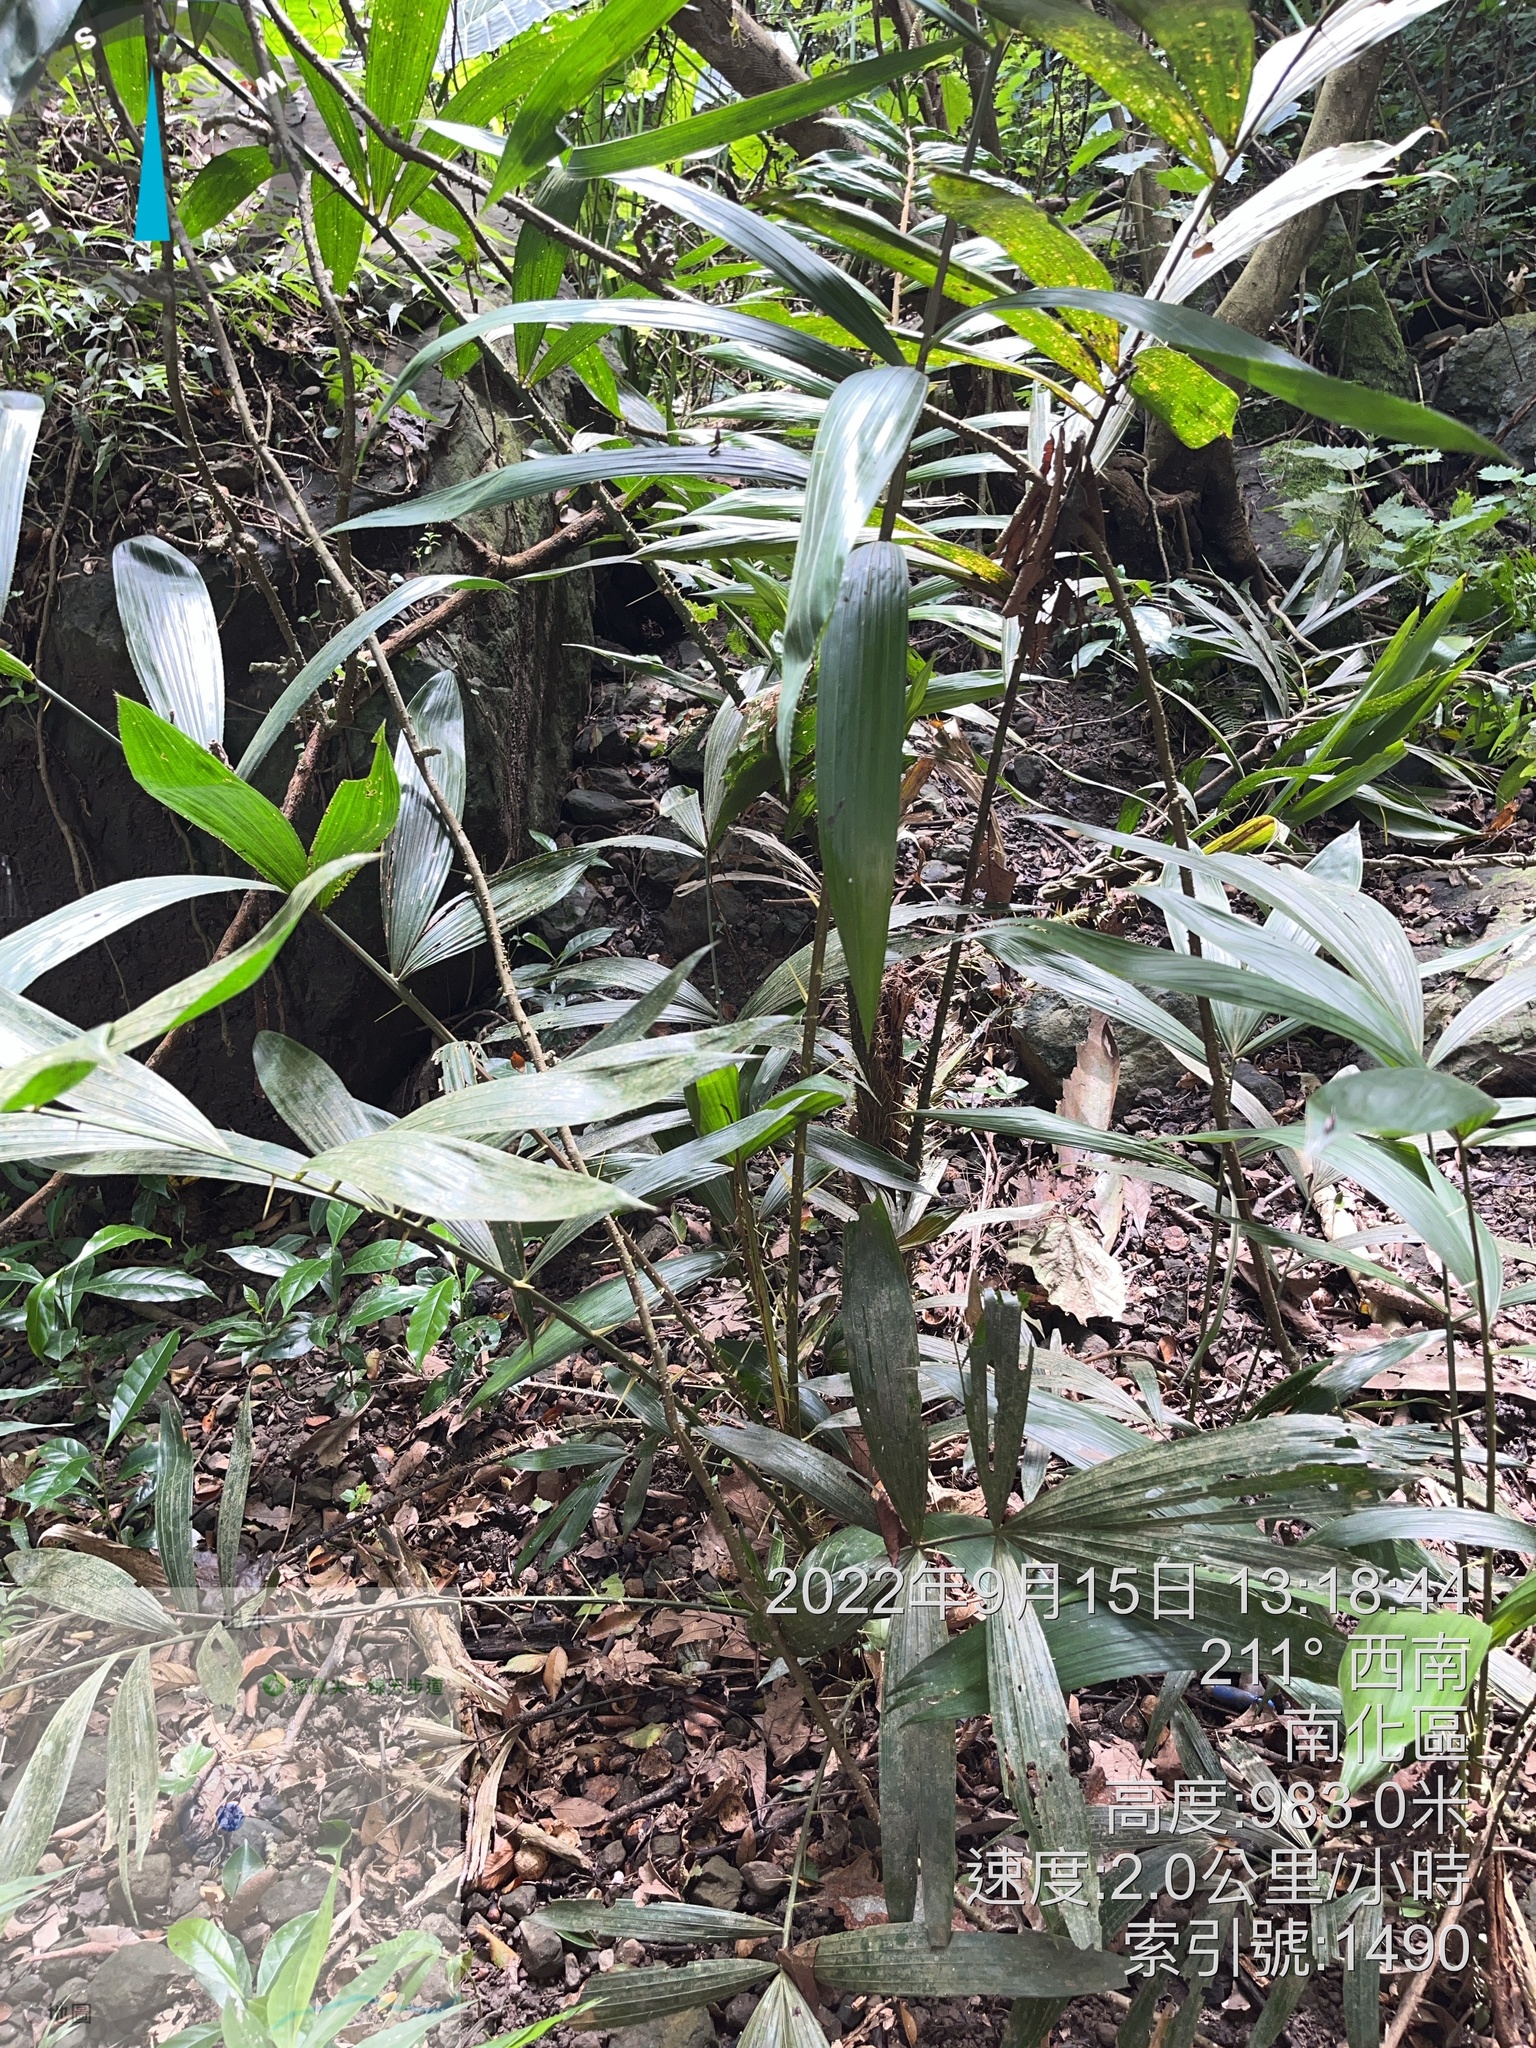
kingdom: Plantae
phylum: Tracheophyta
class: Liliopsida
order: Arecales
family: Arecaceae
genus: Calamus
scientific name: Calamus formosanus
